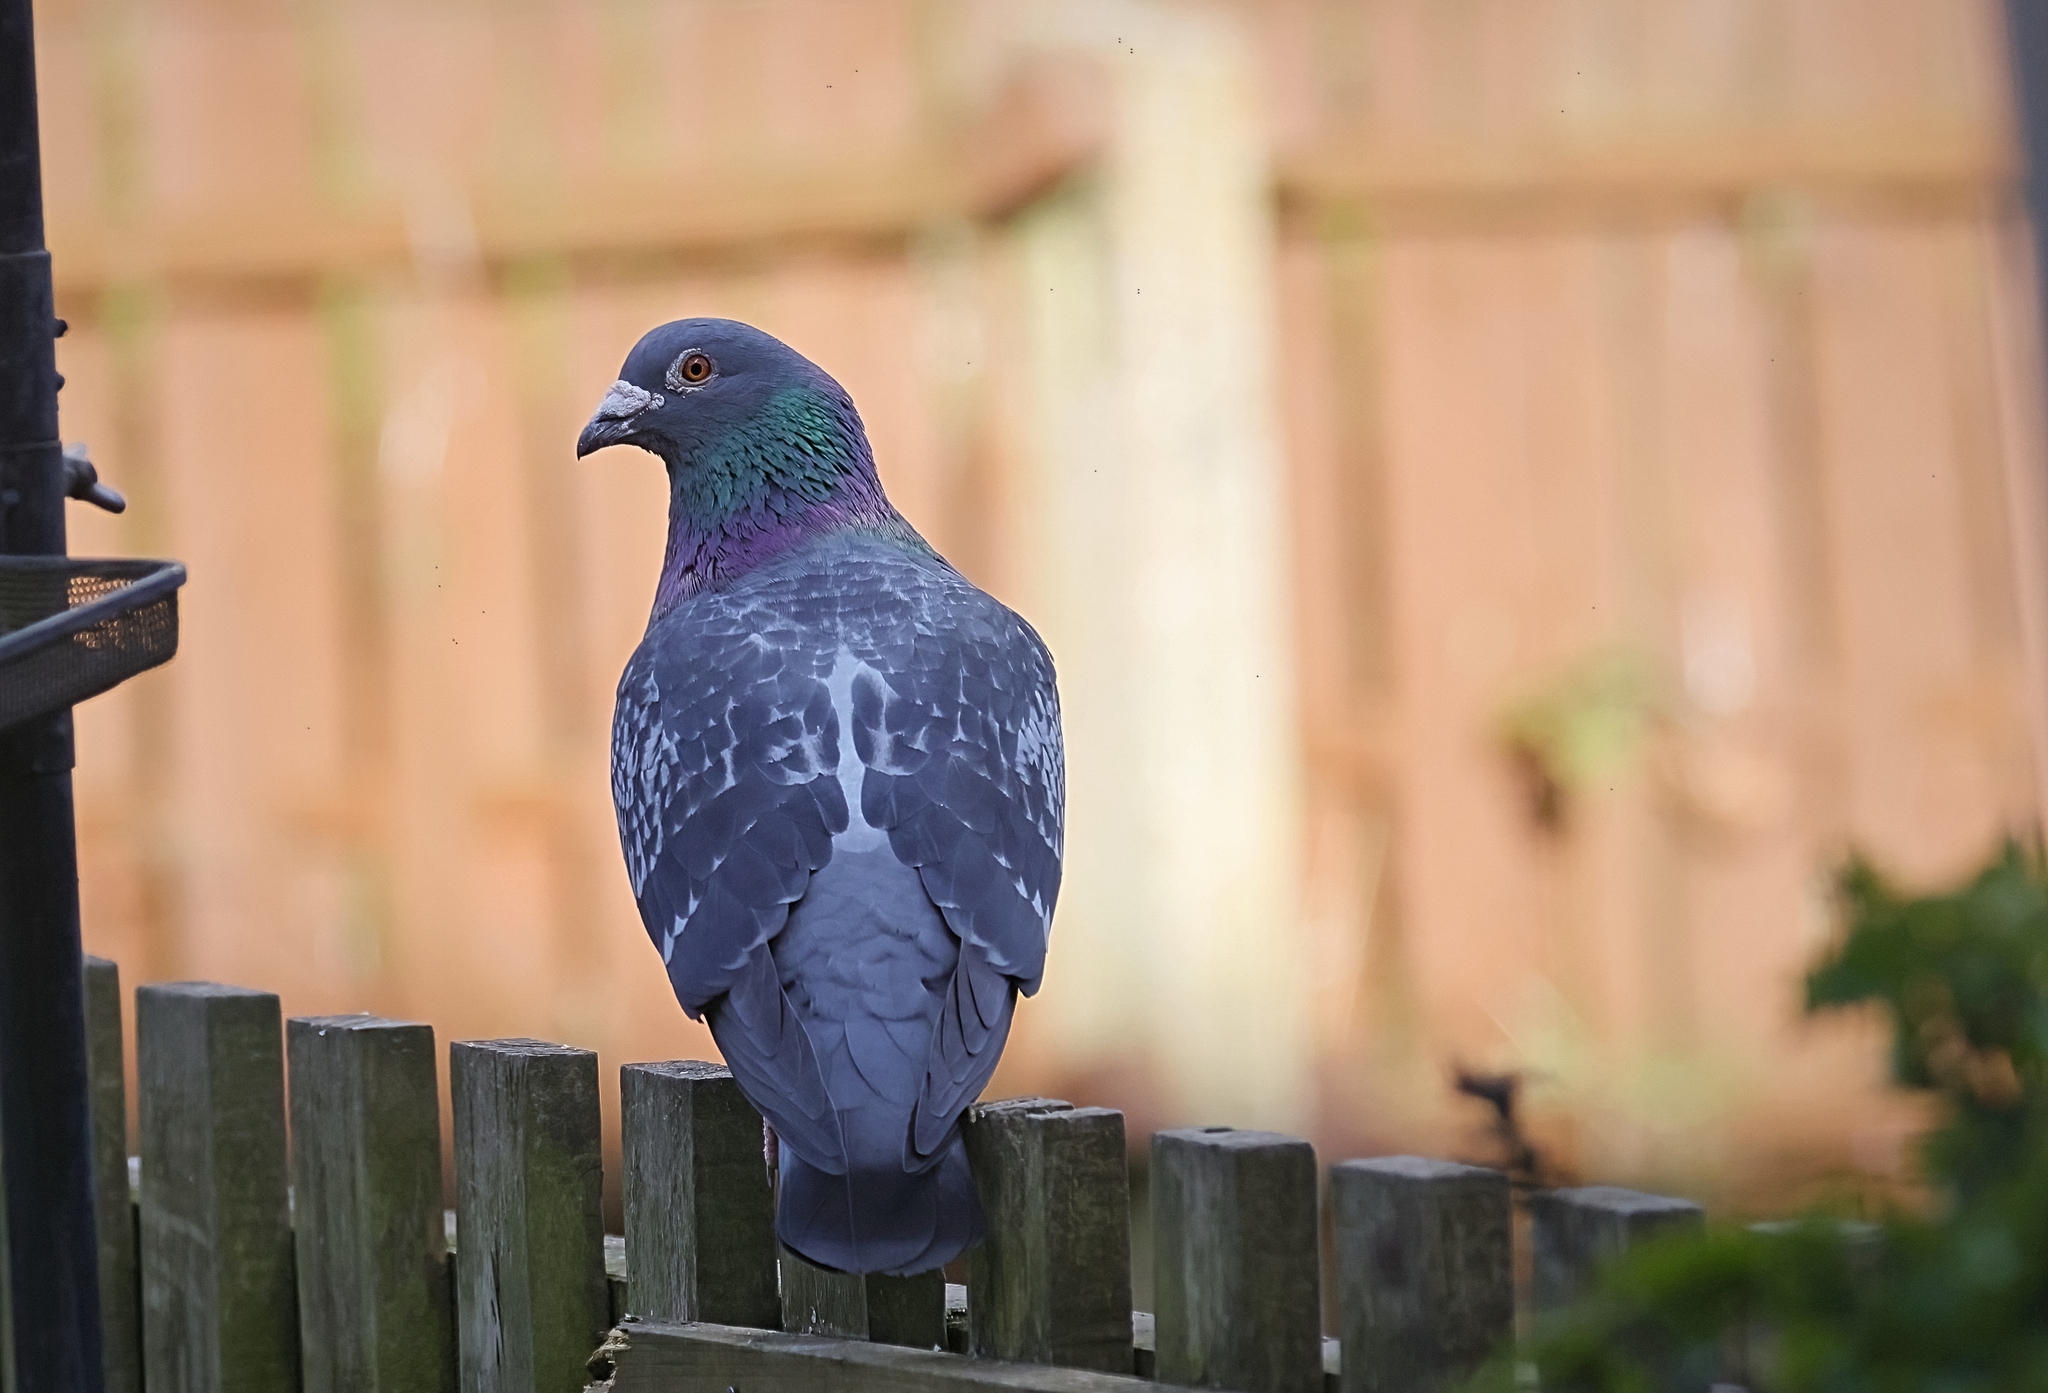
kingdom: Animalia
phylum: Chordata
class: Aves
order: Columbiformes
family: Columbidae
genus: Columba
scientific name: Columba livia
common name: Rock pigeon
